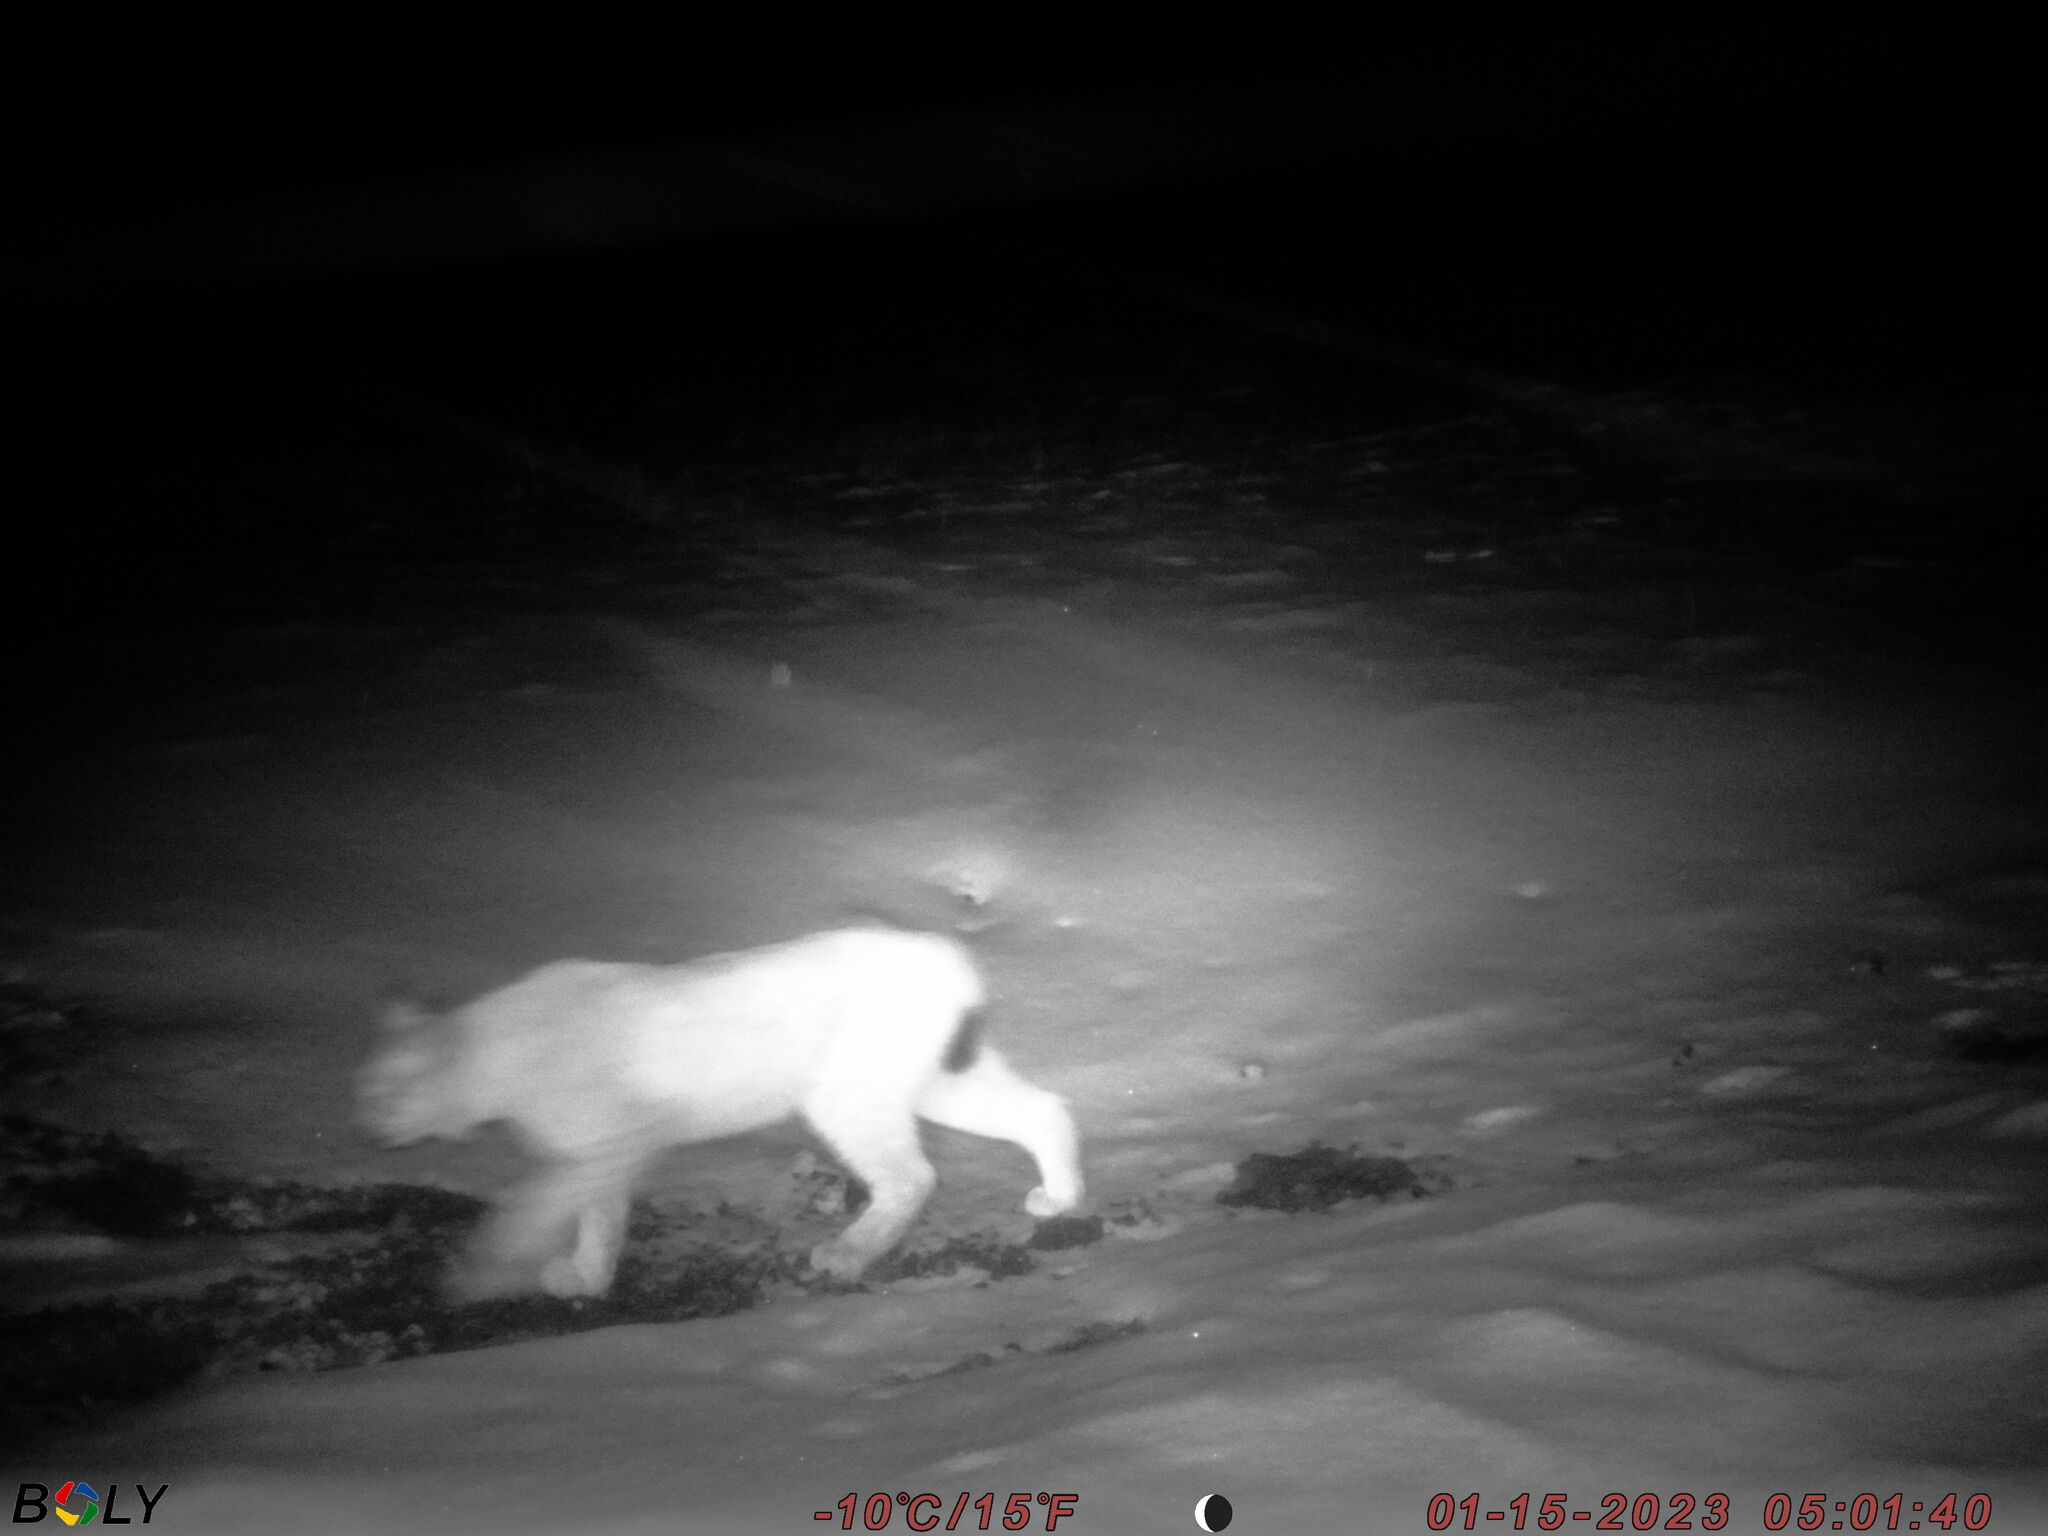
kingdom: Animalia
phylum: Chordata
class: Mammalia
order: Carnivora
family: Felidae
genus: Lynx
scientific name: Lynx lynx
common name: Eurasian lynx
